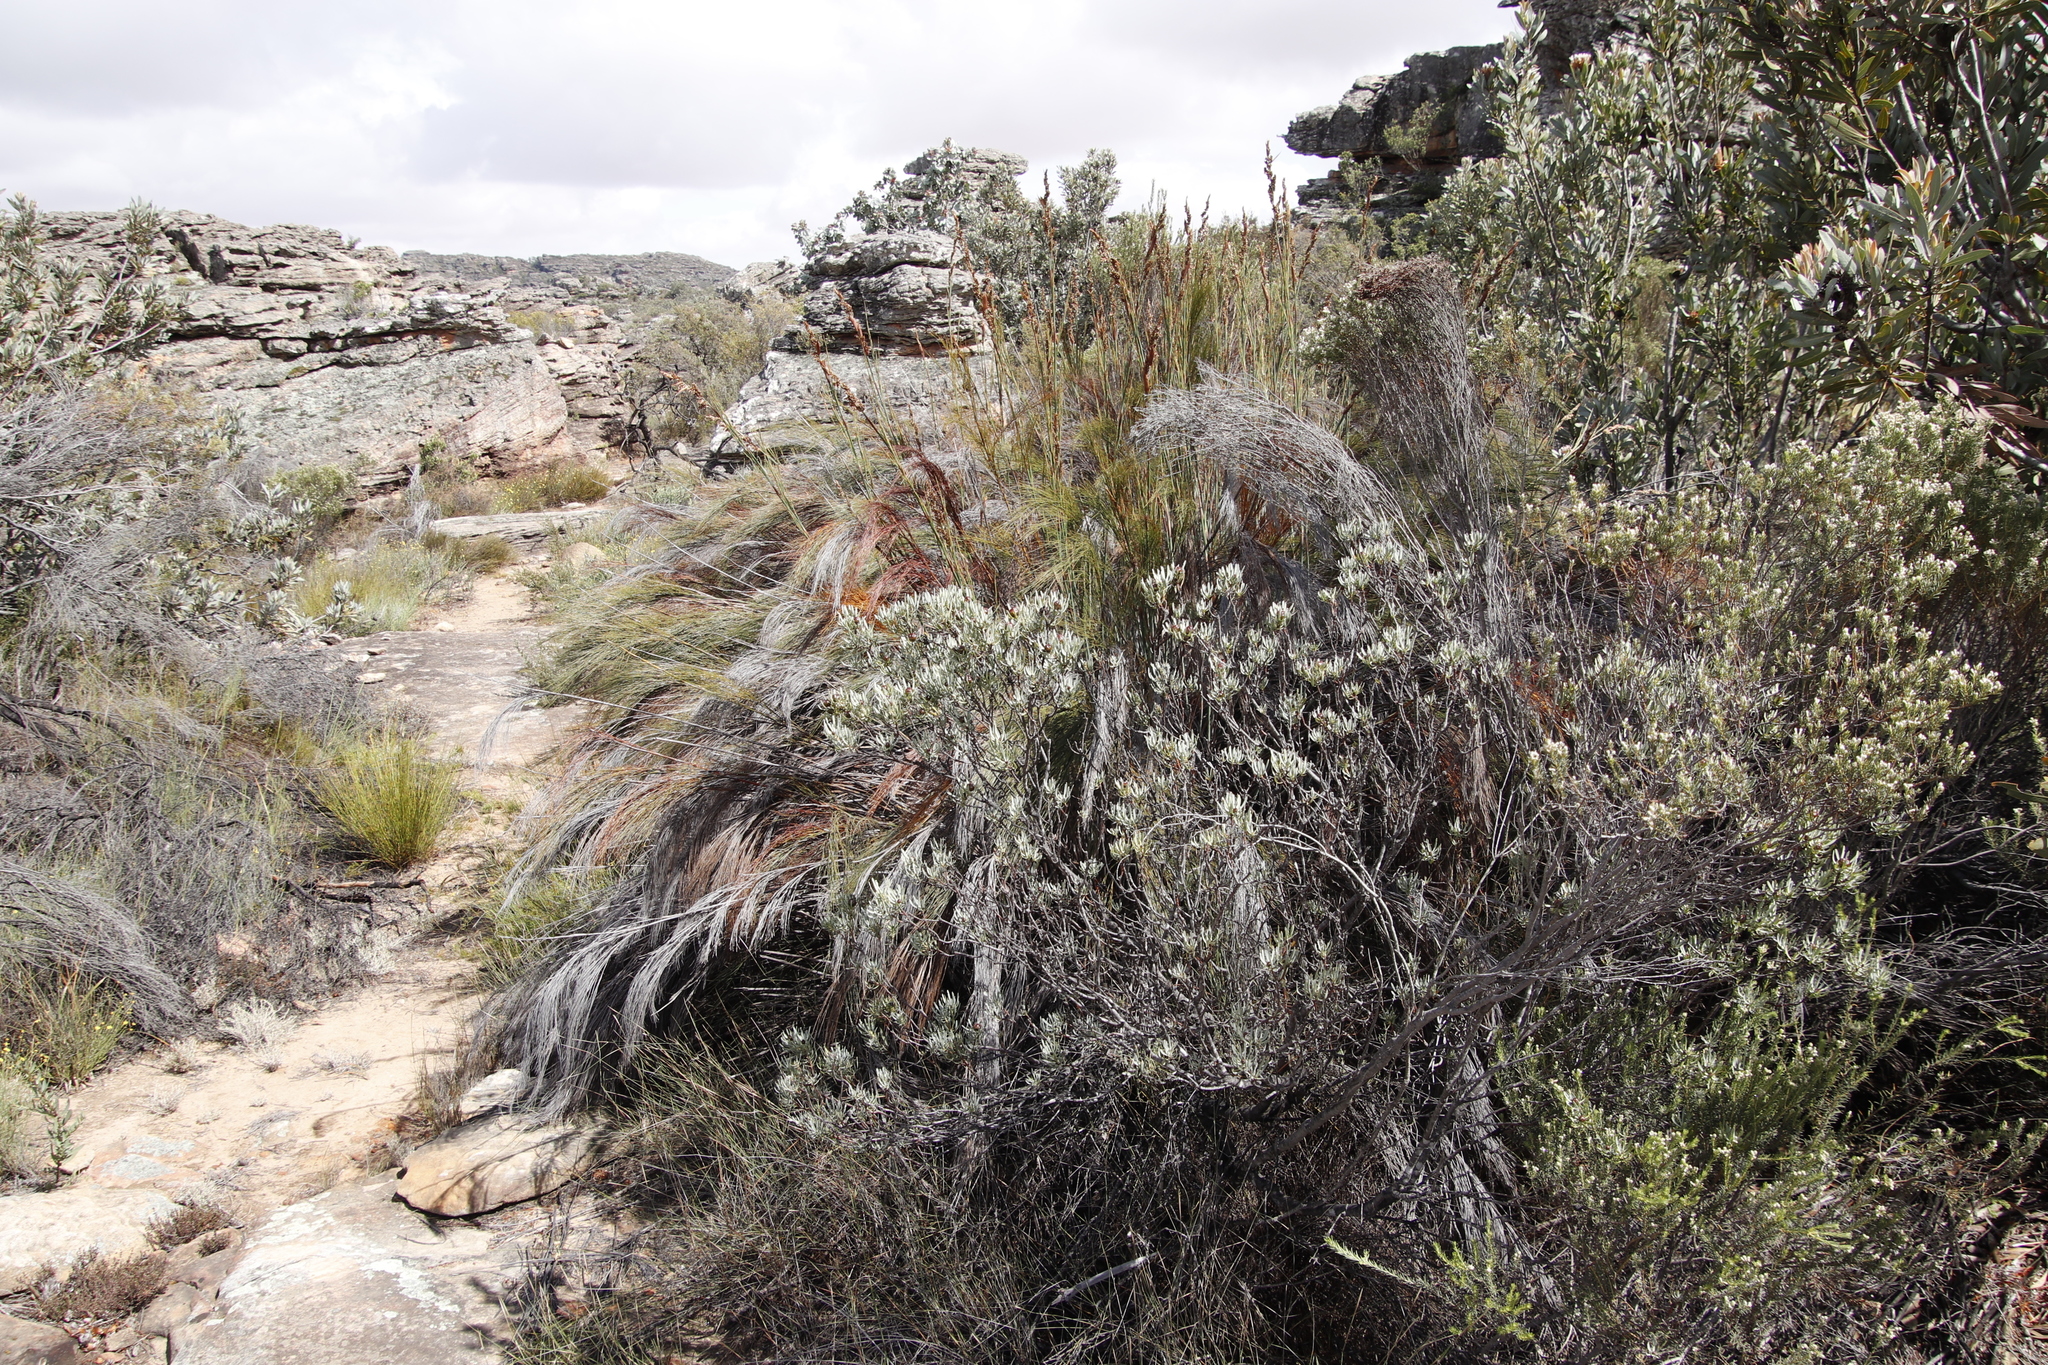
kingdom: Plantae
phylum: Tracheophyta
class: Magnoliopsida
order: Proteales
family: Proteaceae
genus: Leucadendron
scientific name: Leucadendron meyerianum
